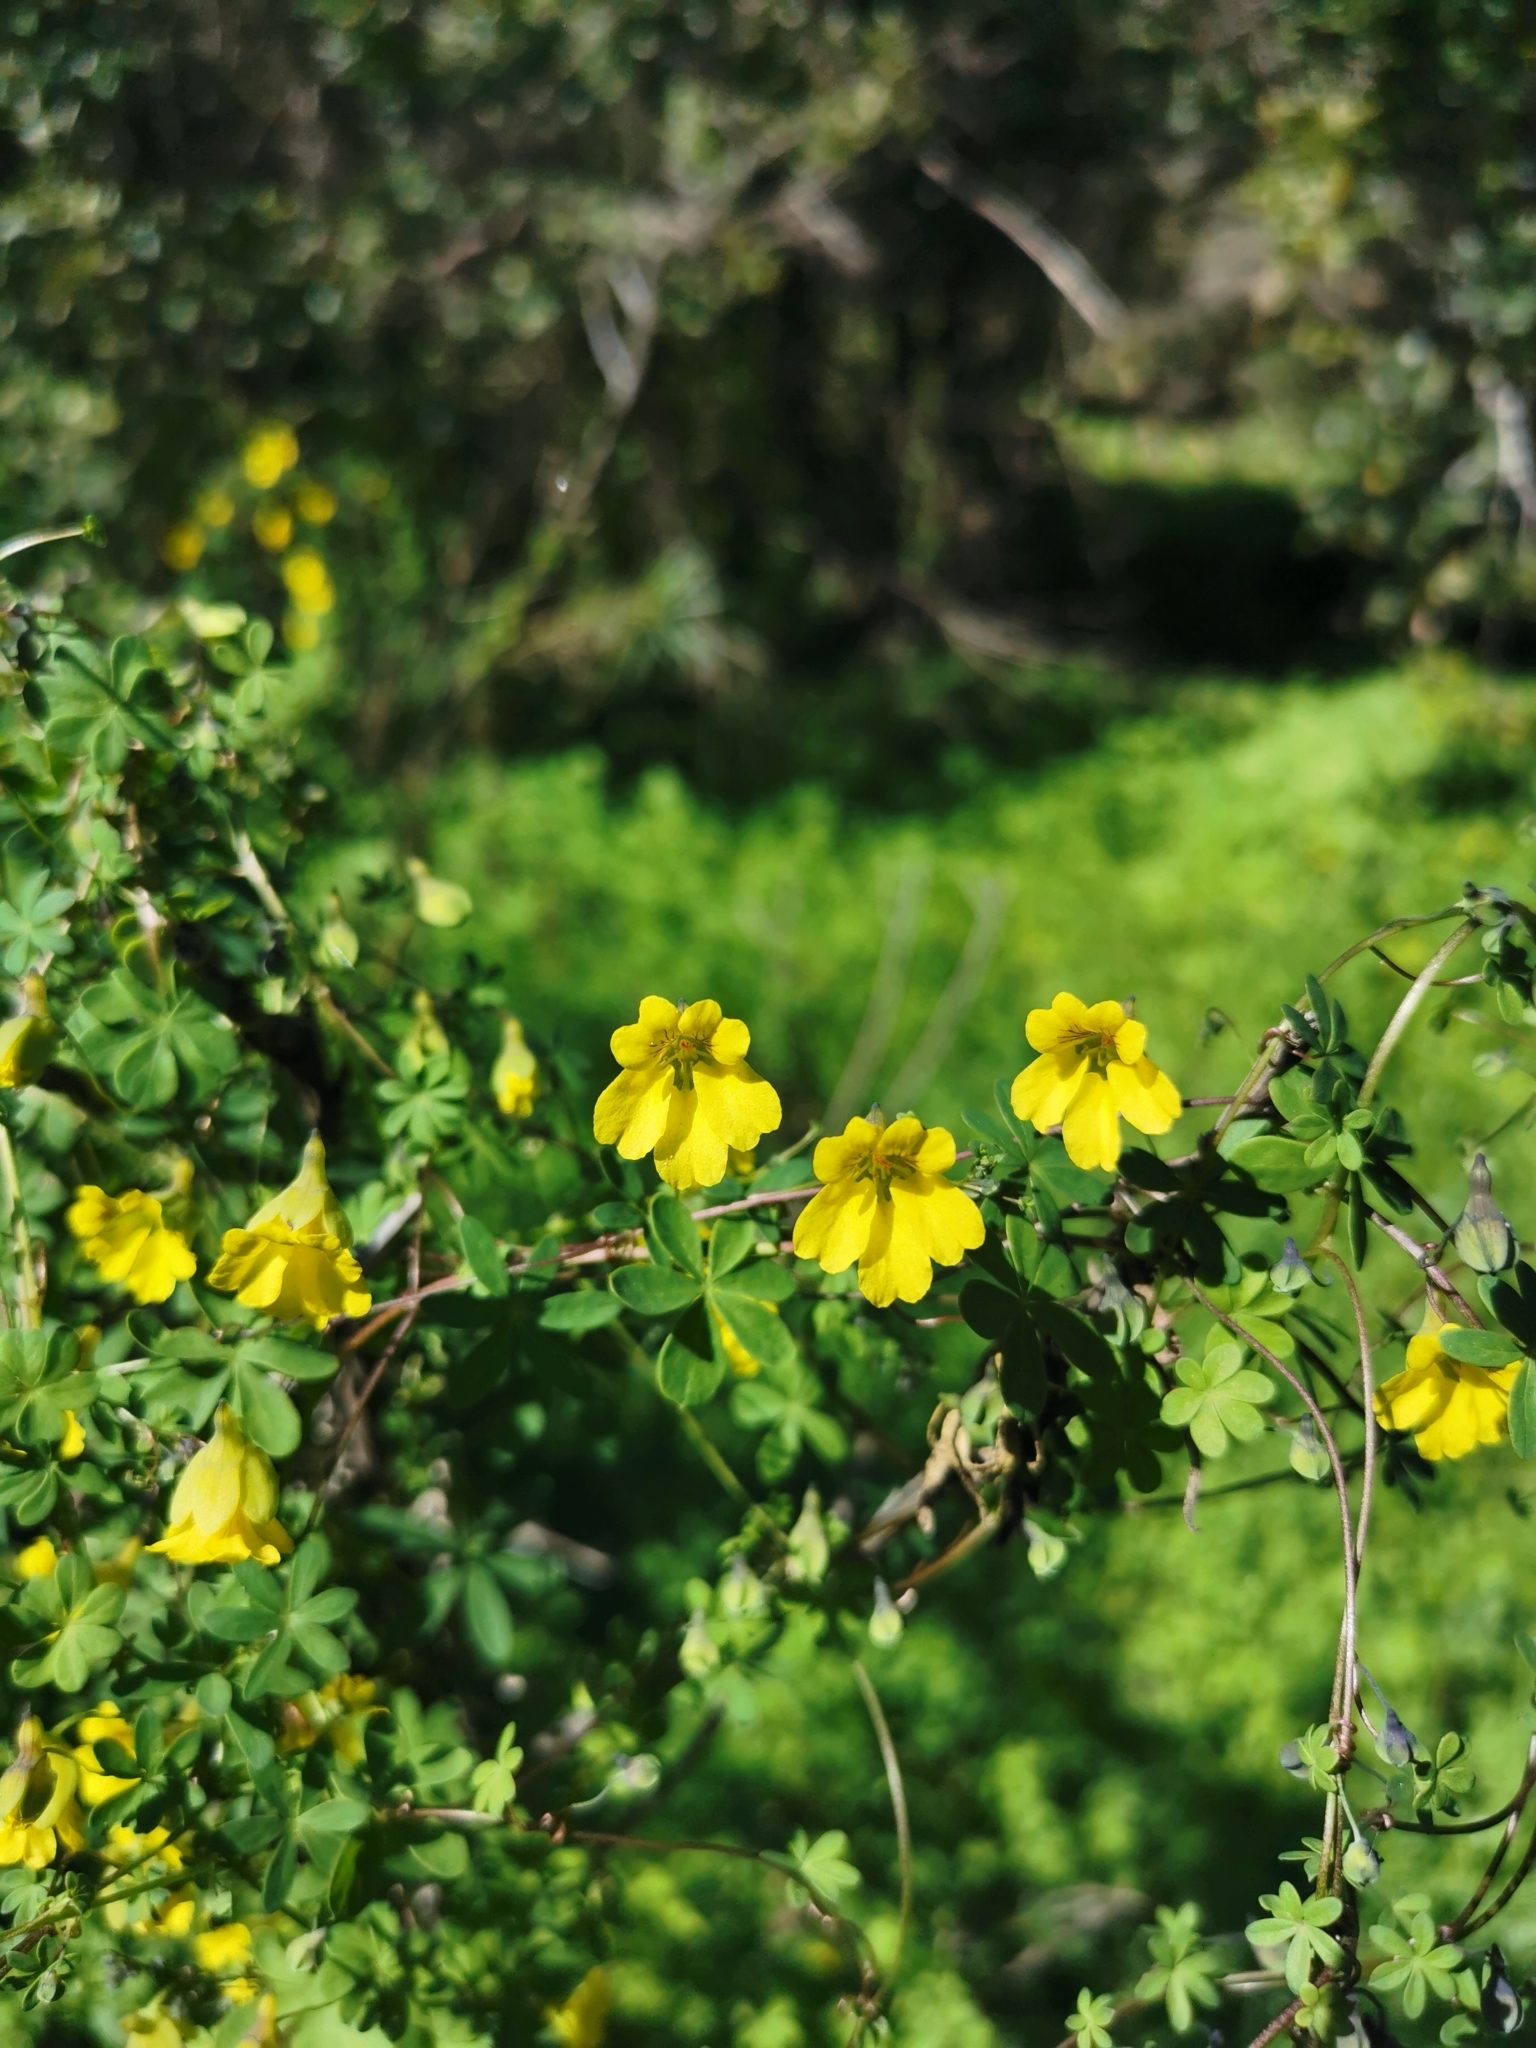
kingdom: Plantae
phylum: Tracheophyta
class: Magnoliopsida
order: Brassicales
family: Tropaeolaceae
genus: Tropaeolum
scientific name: Tropaeolum brachyceras
